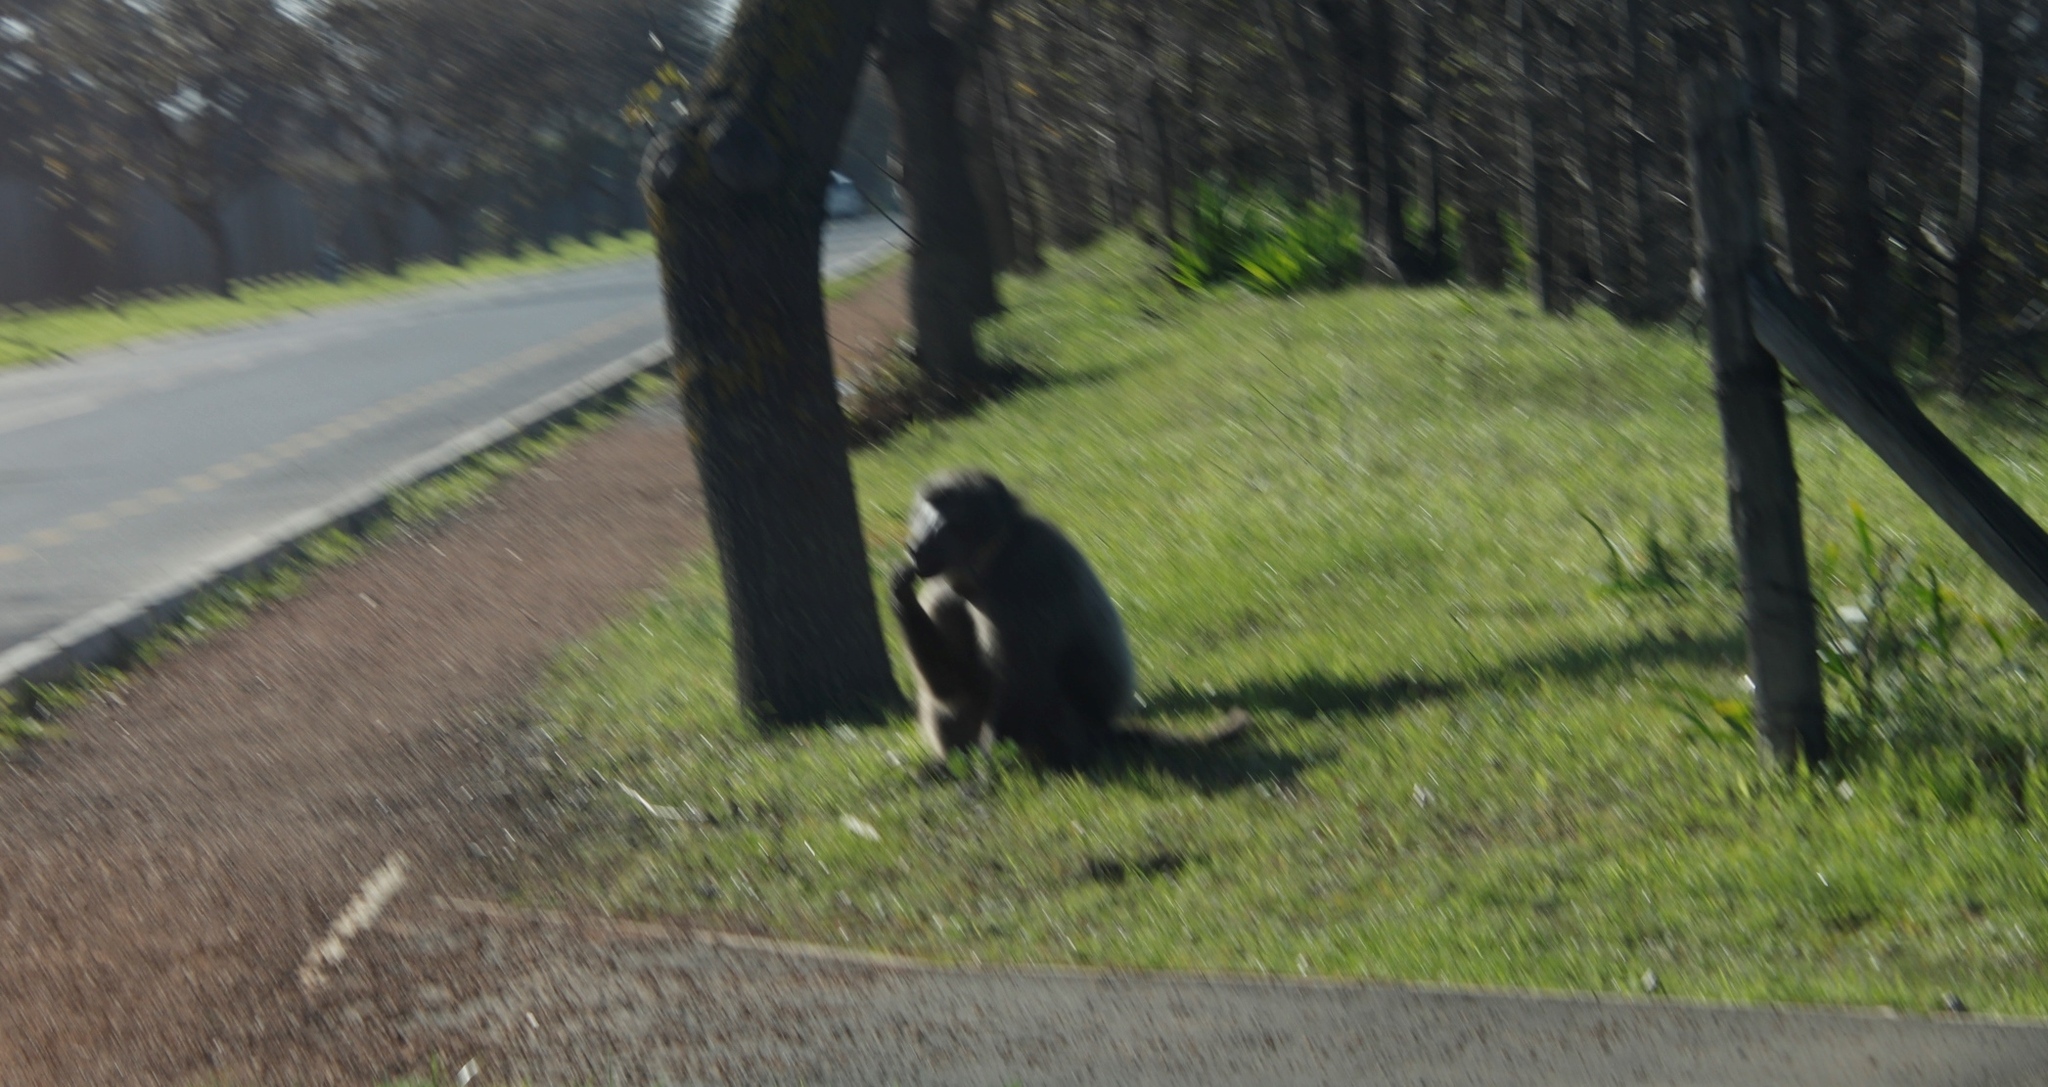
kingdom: Animalia
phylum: Chordata
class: Mammalia
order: Primates
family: Cercopithecidae
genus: Papio
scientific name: Papio ursinus
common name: Chacma baboon
